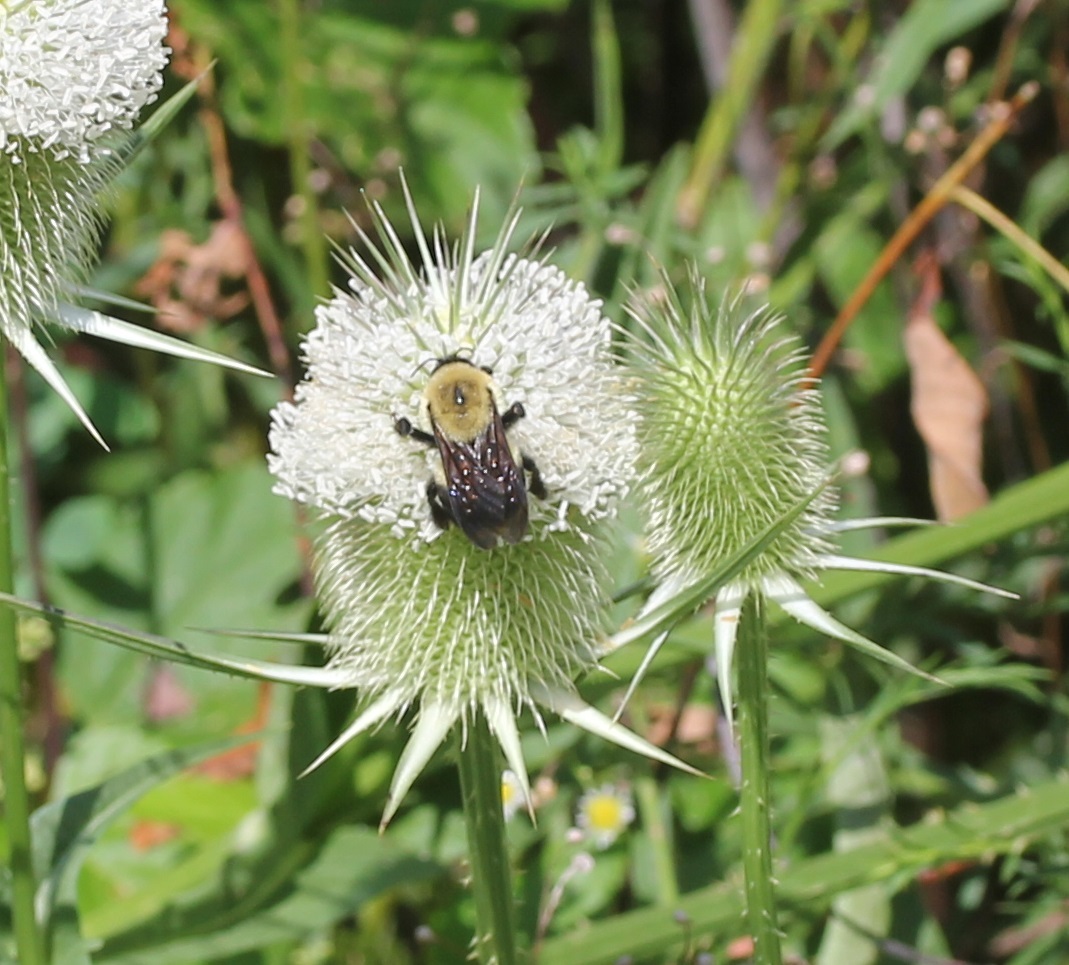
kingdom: Animalia
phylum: Arthropoda
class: Insecta
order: Hymenoptera
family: Apidae
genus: Bombus
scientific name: Bombus griseocollis
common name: Brown-belted bumble bee
